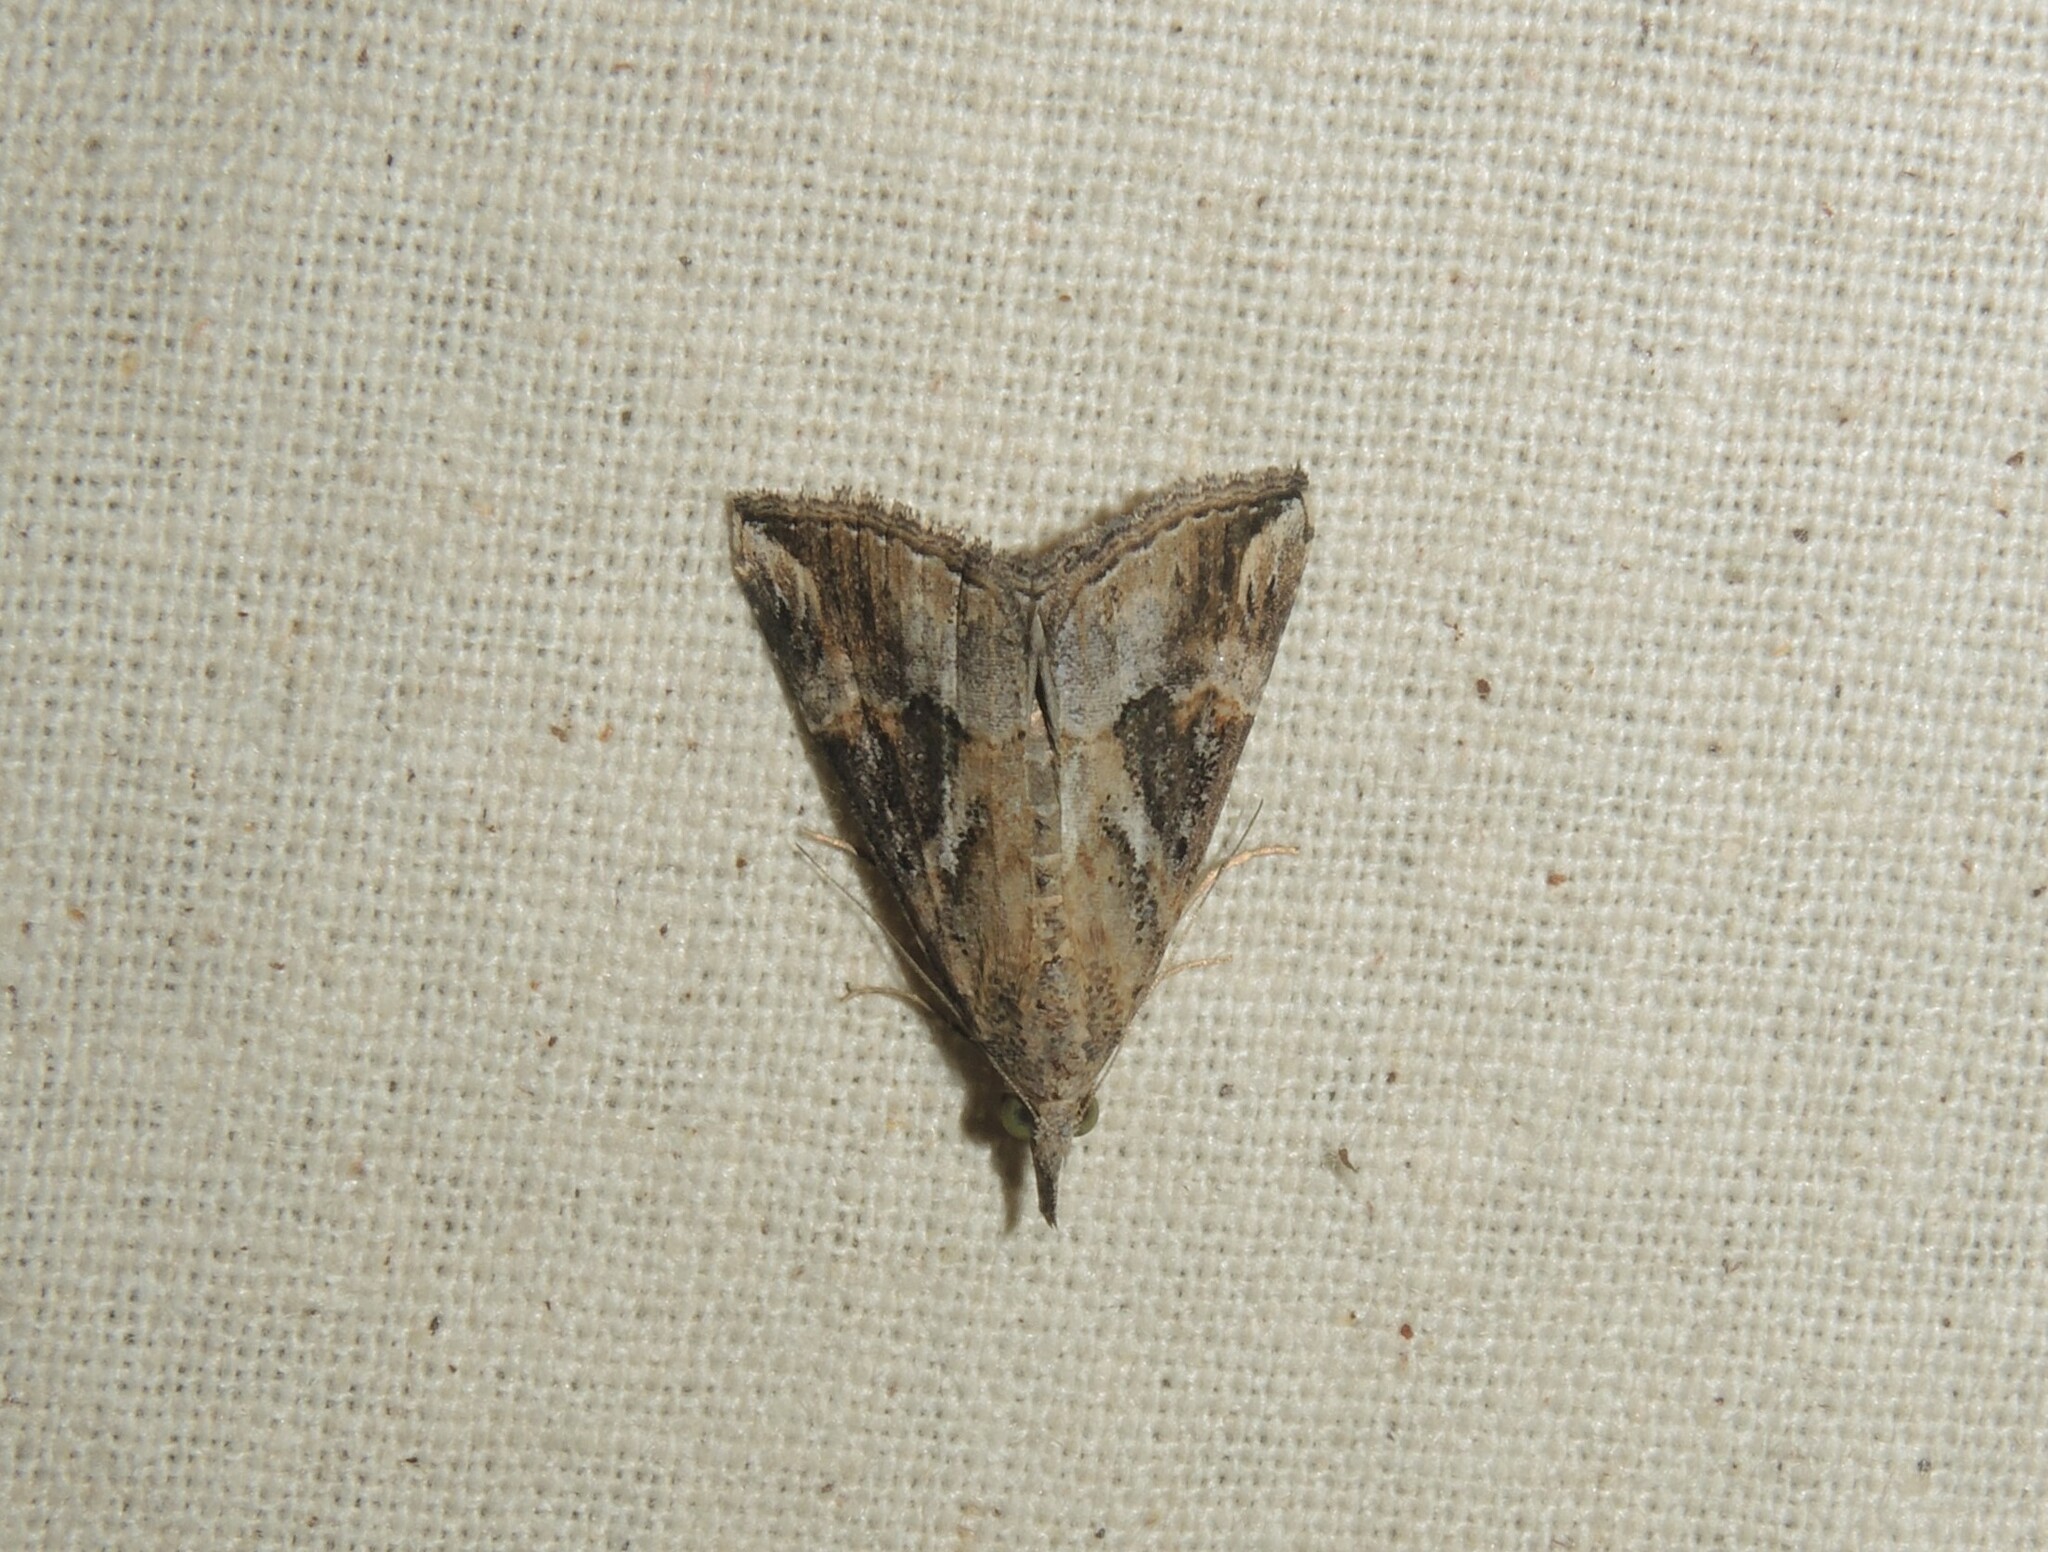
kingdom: Animalia
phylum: Arthropoda
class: Insecta
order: Lepidoptera
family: Erebidae
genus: Hypena
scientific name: Hypena commixtalis
